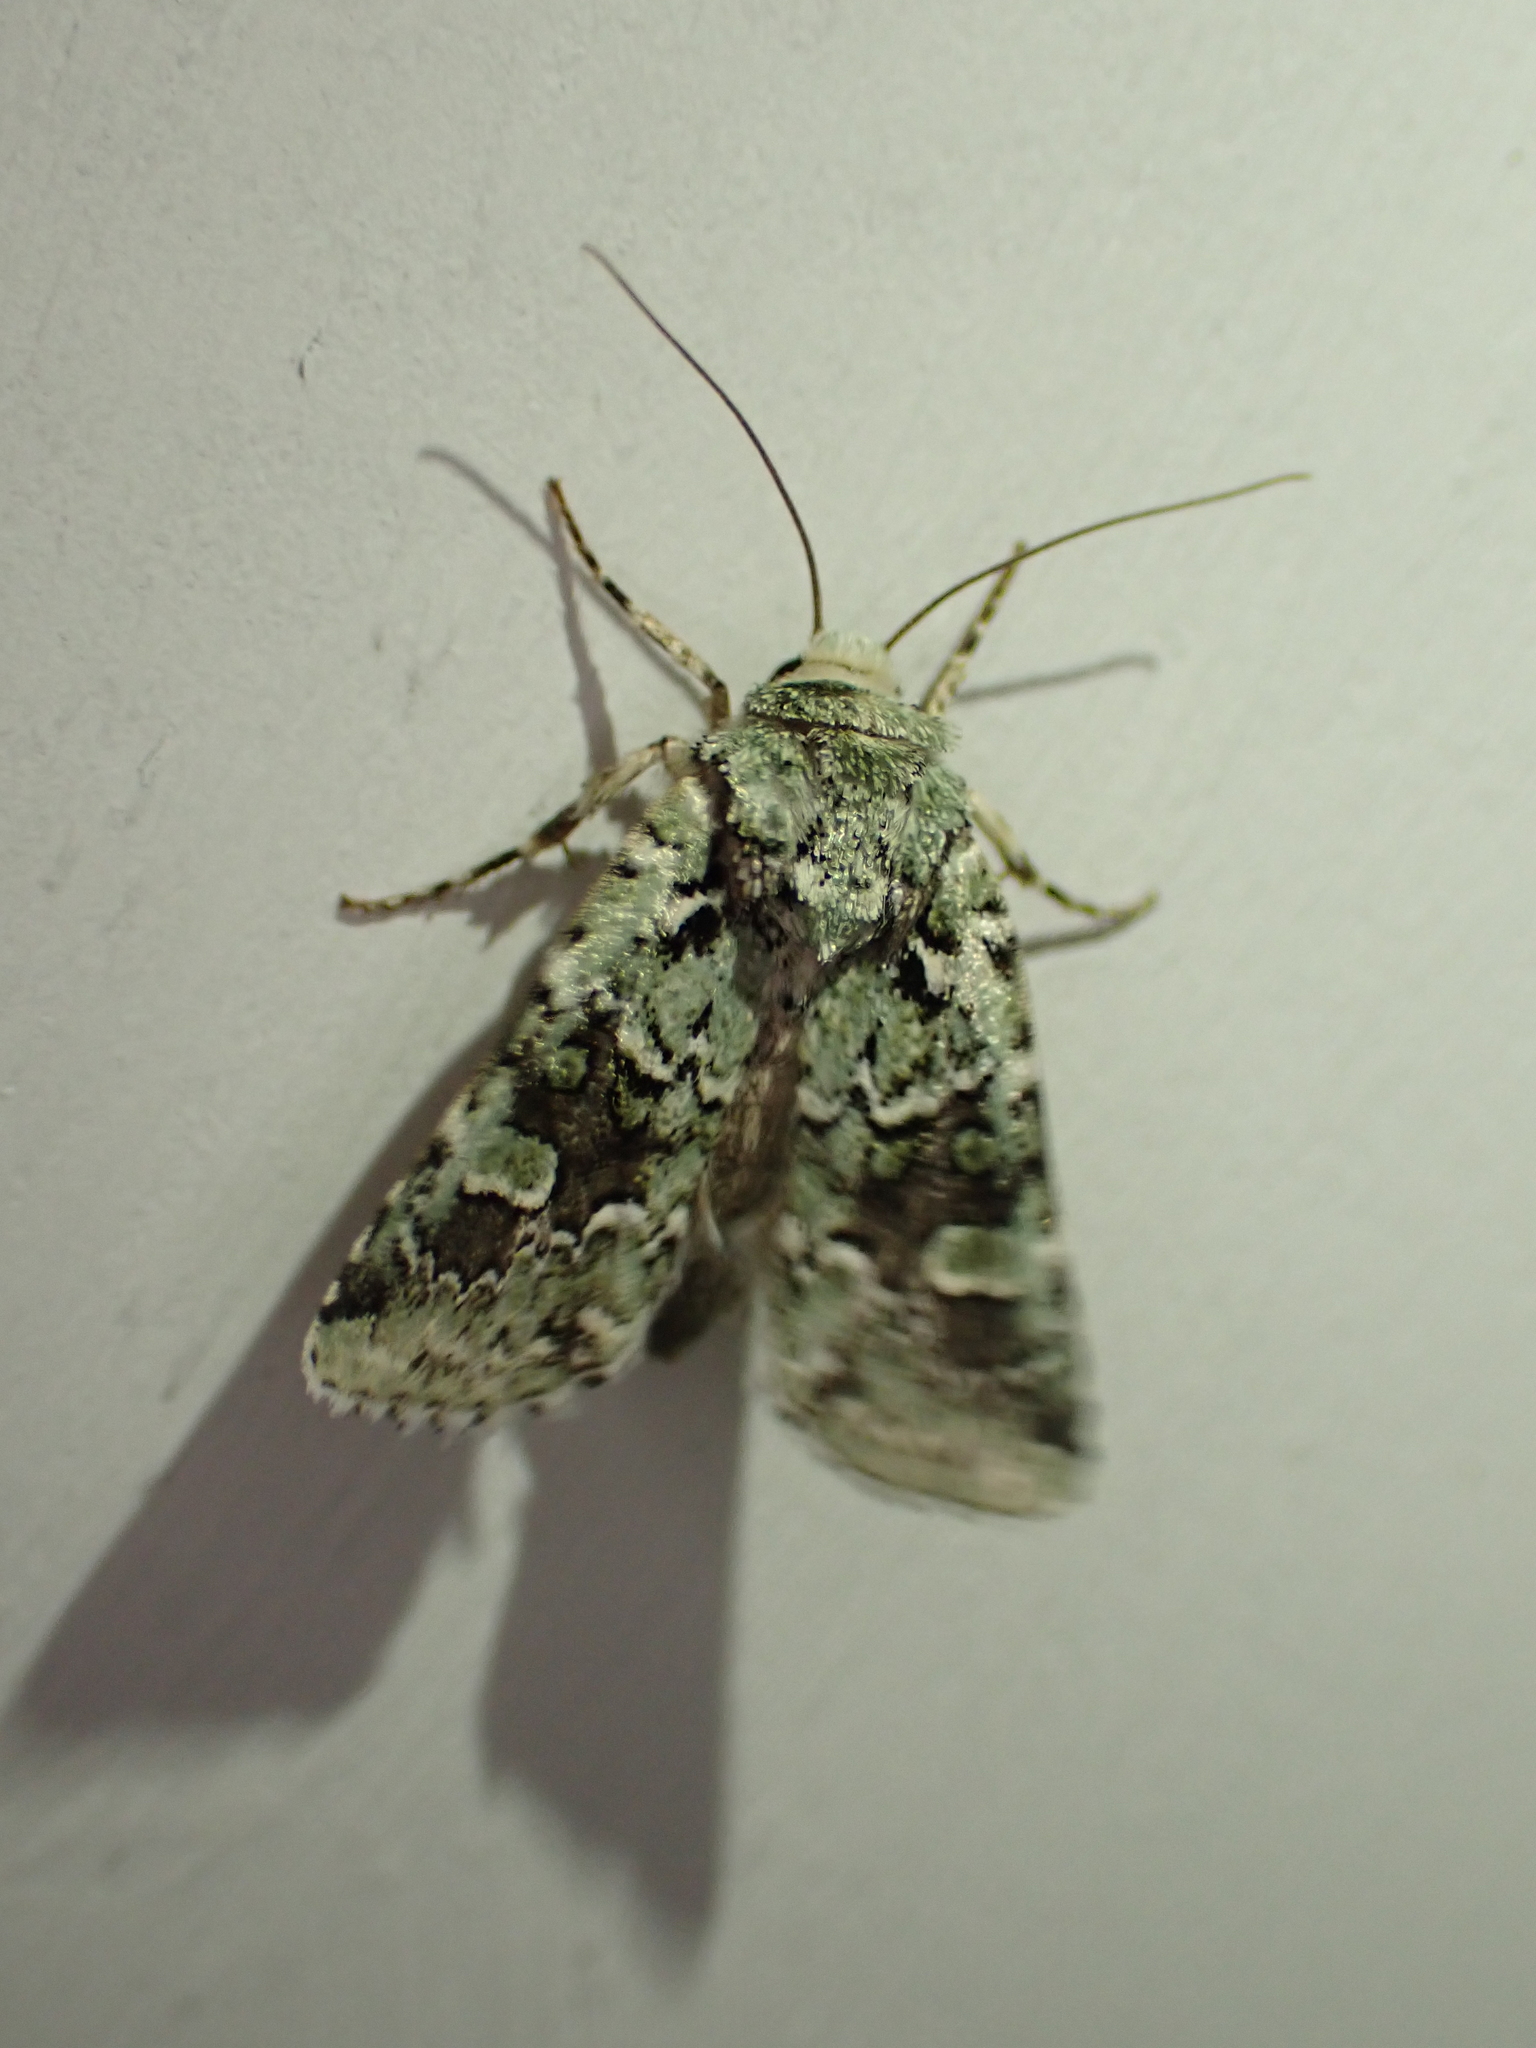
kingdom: Animalia
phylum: Arthropoda
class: Insecta
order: Lepidoptera
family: Noctuidae
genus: Lacinipolia
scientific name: Lacinipolia laudabilis
